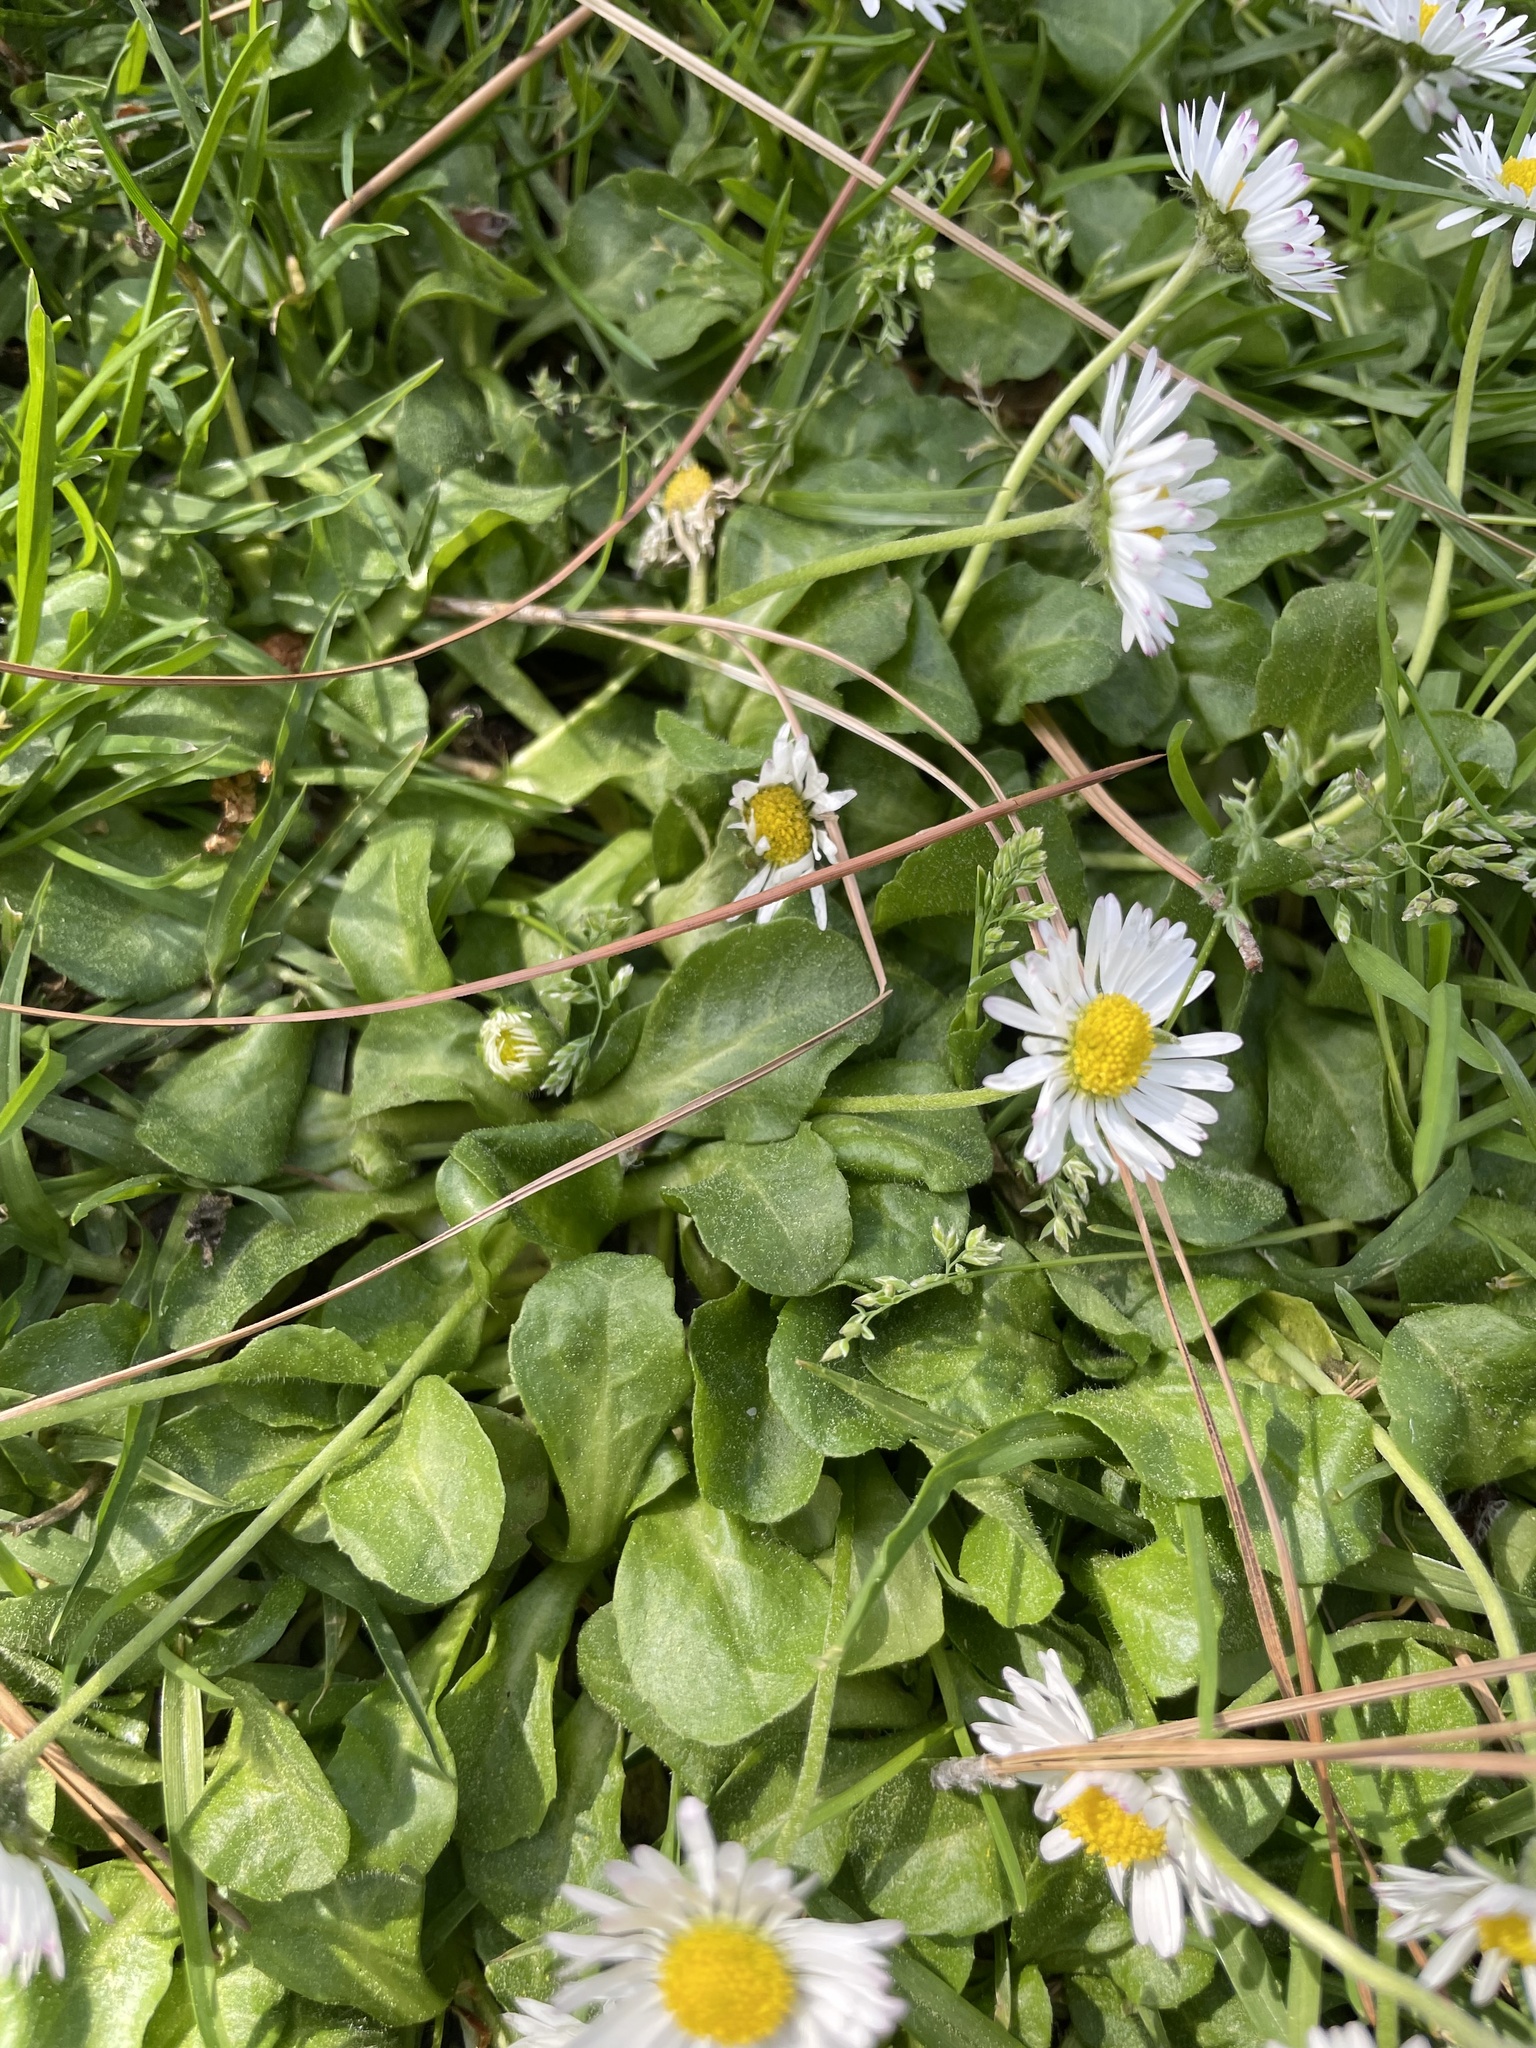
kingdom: Plantae
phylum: Tracheophyta
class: Magnoliopsida
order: Asterales
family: Asteraceae
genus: Bellis
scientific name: Bellis perennis
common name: Lawndaisy
